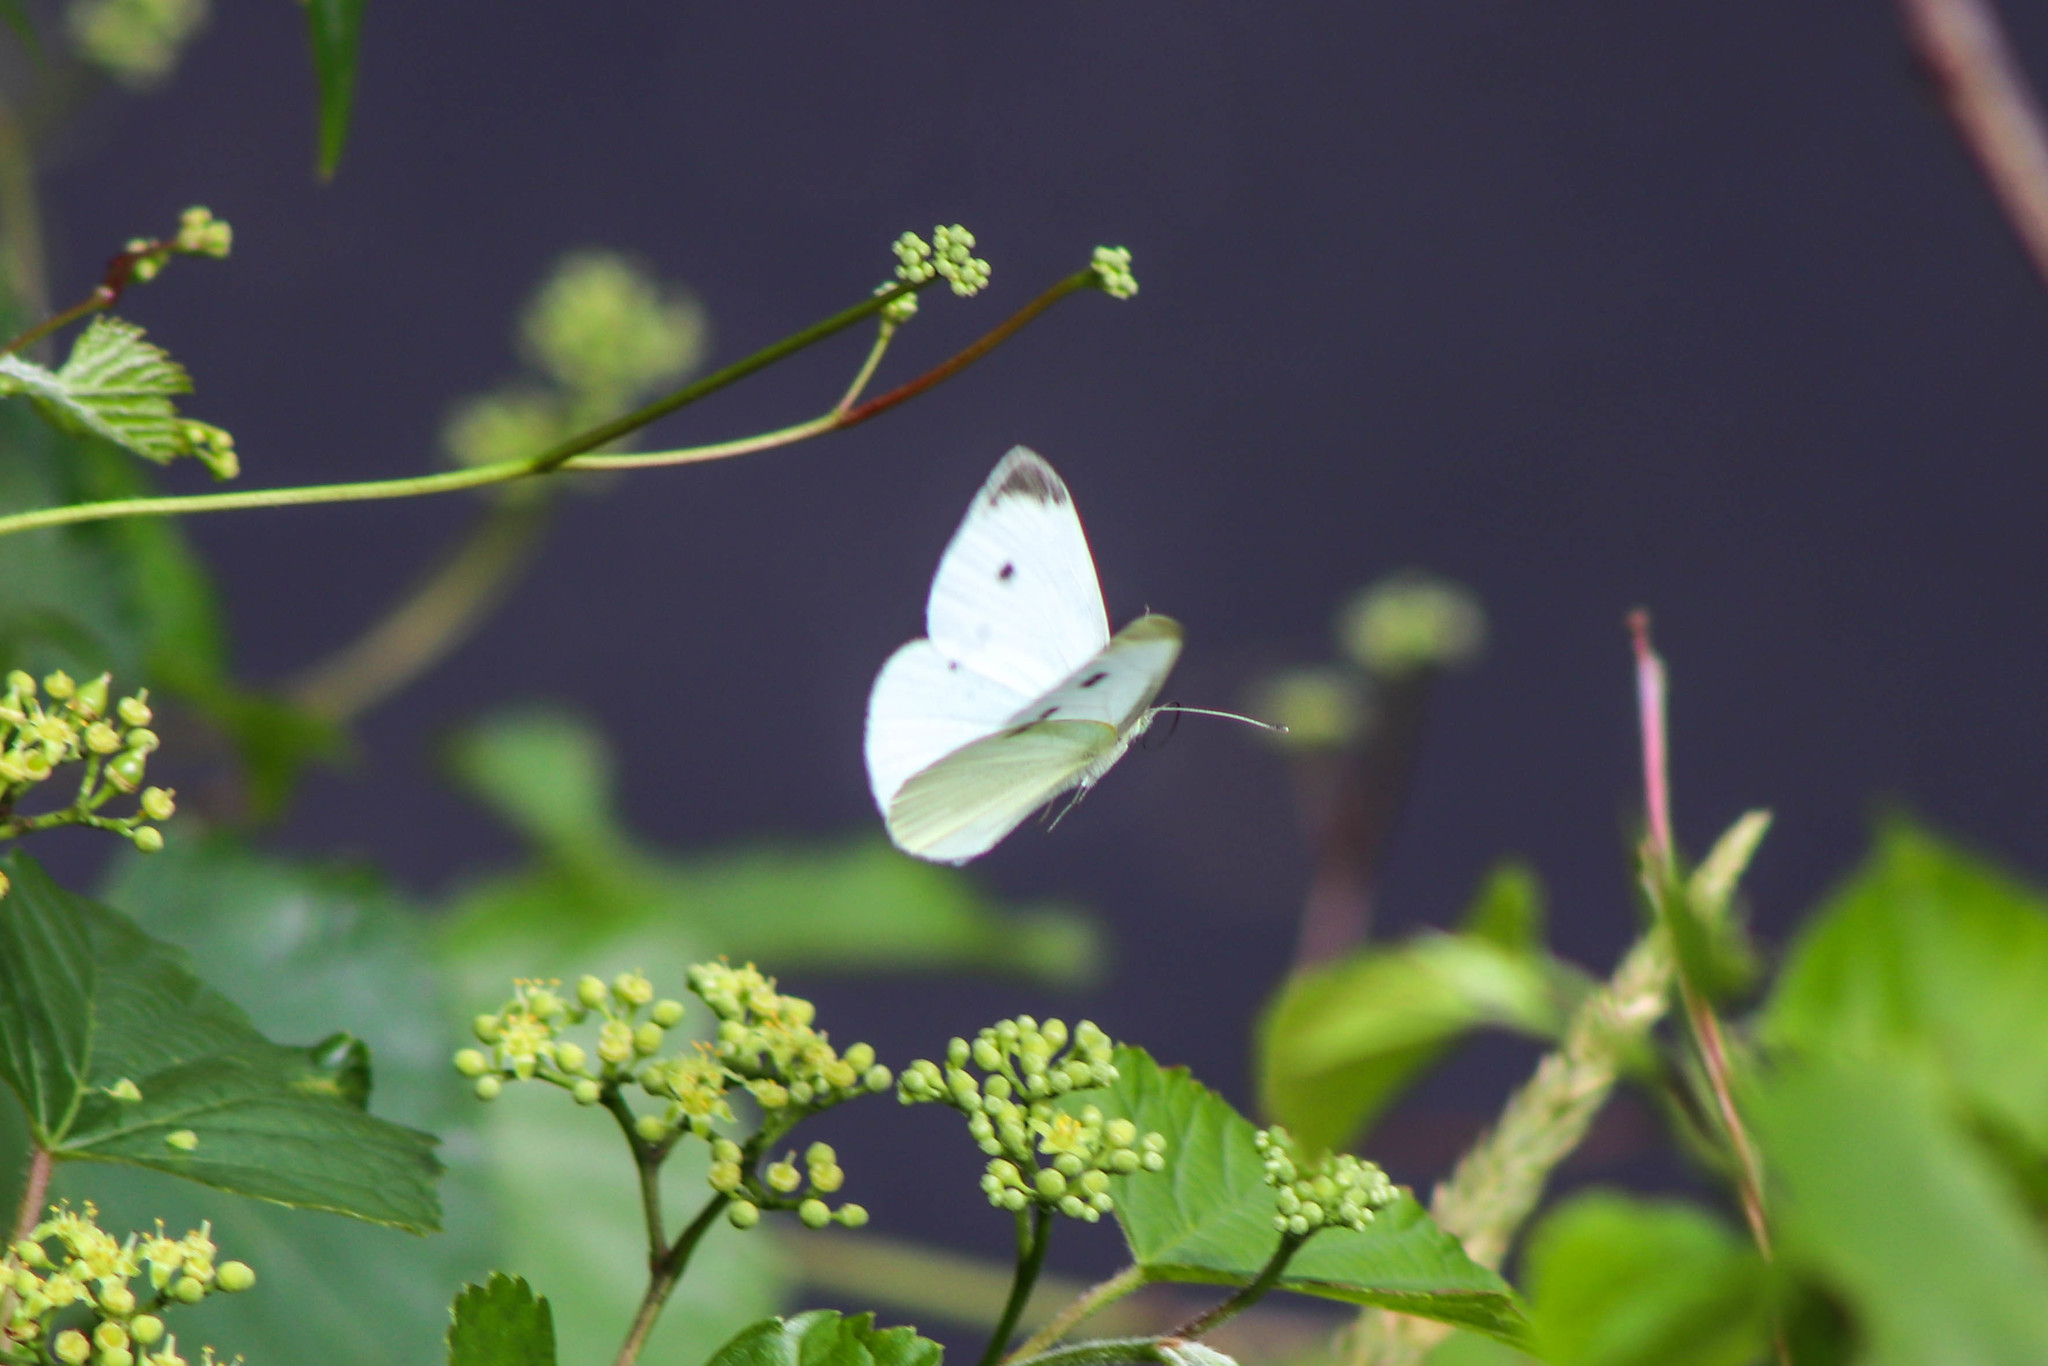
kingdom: Animalia
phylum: Arthropoda
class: Insecta
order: Lepidoptera
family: Pieridae
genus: Pieris
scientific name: Pieris rapae
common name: Small white
